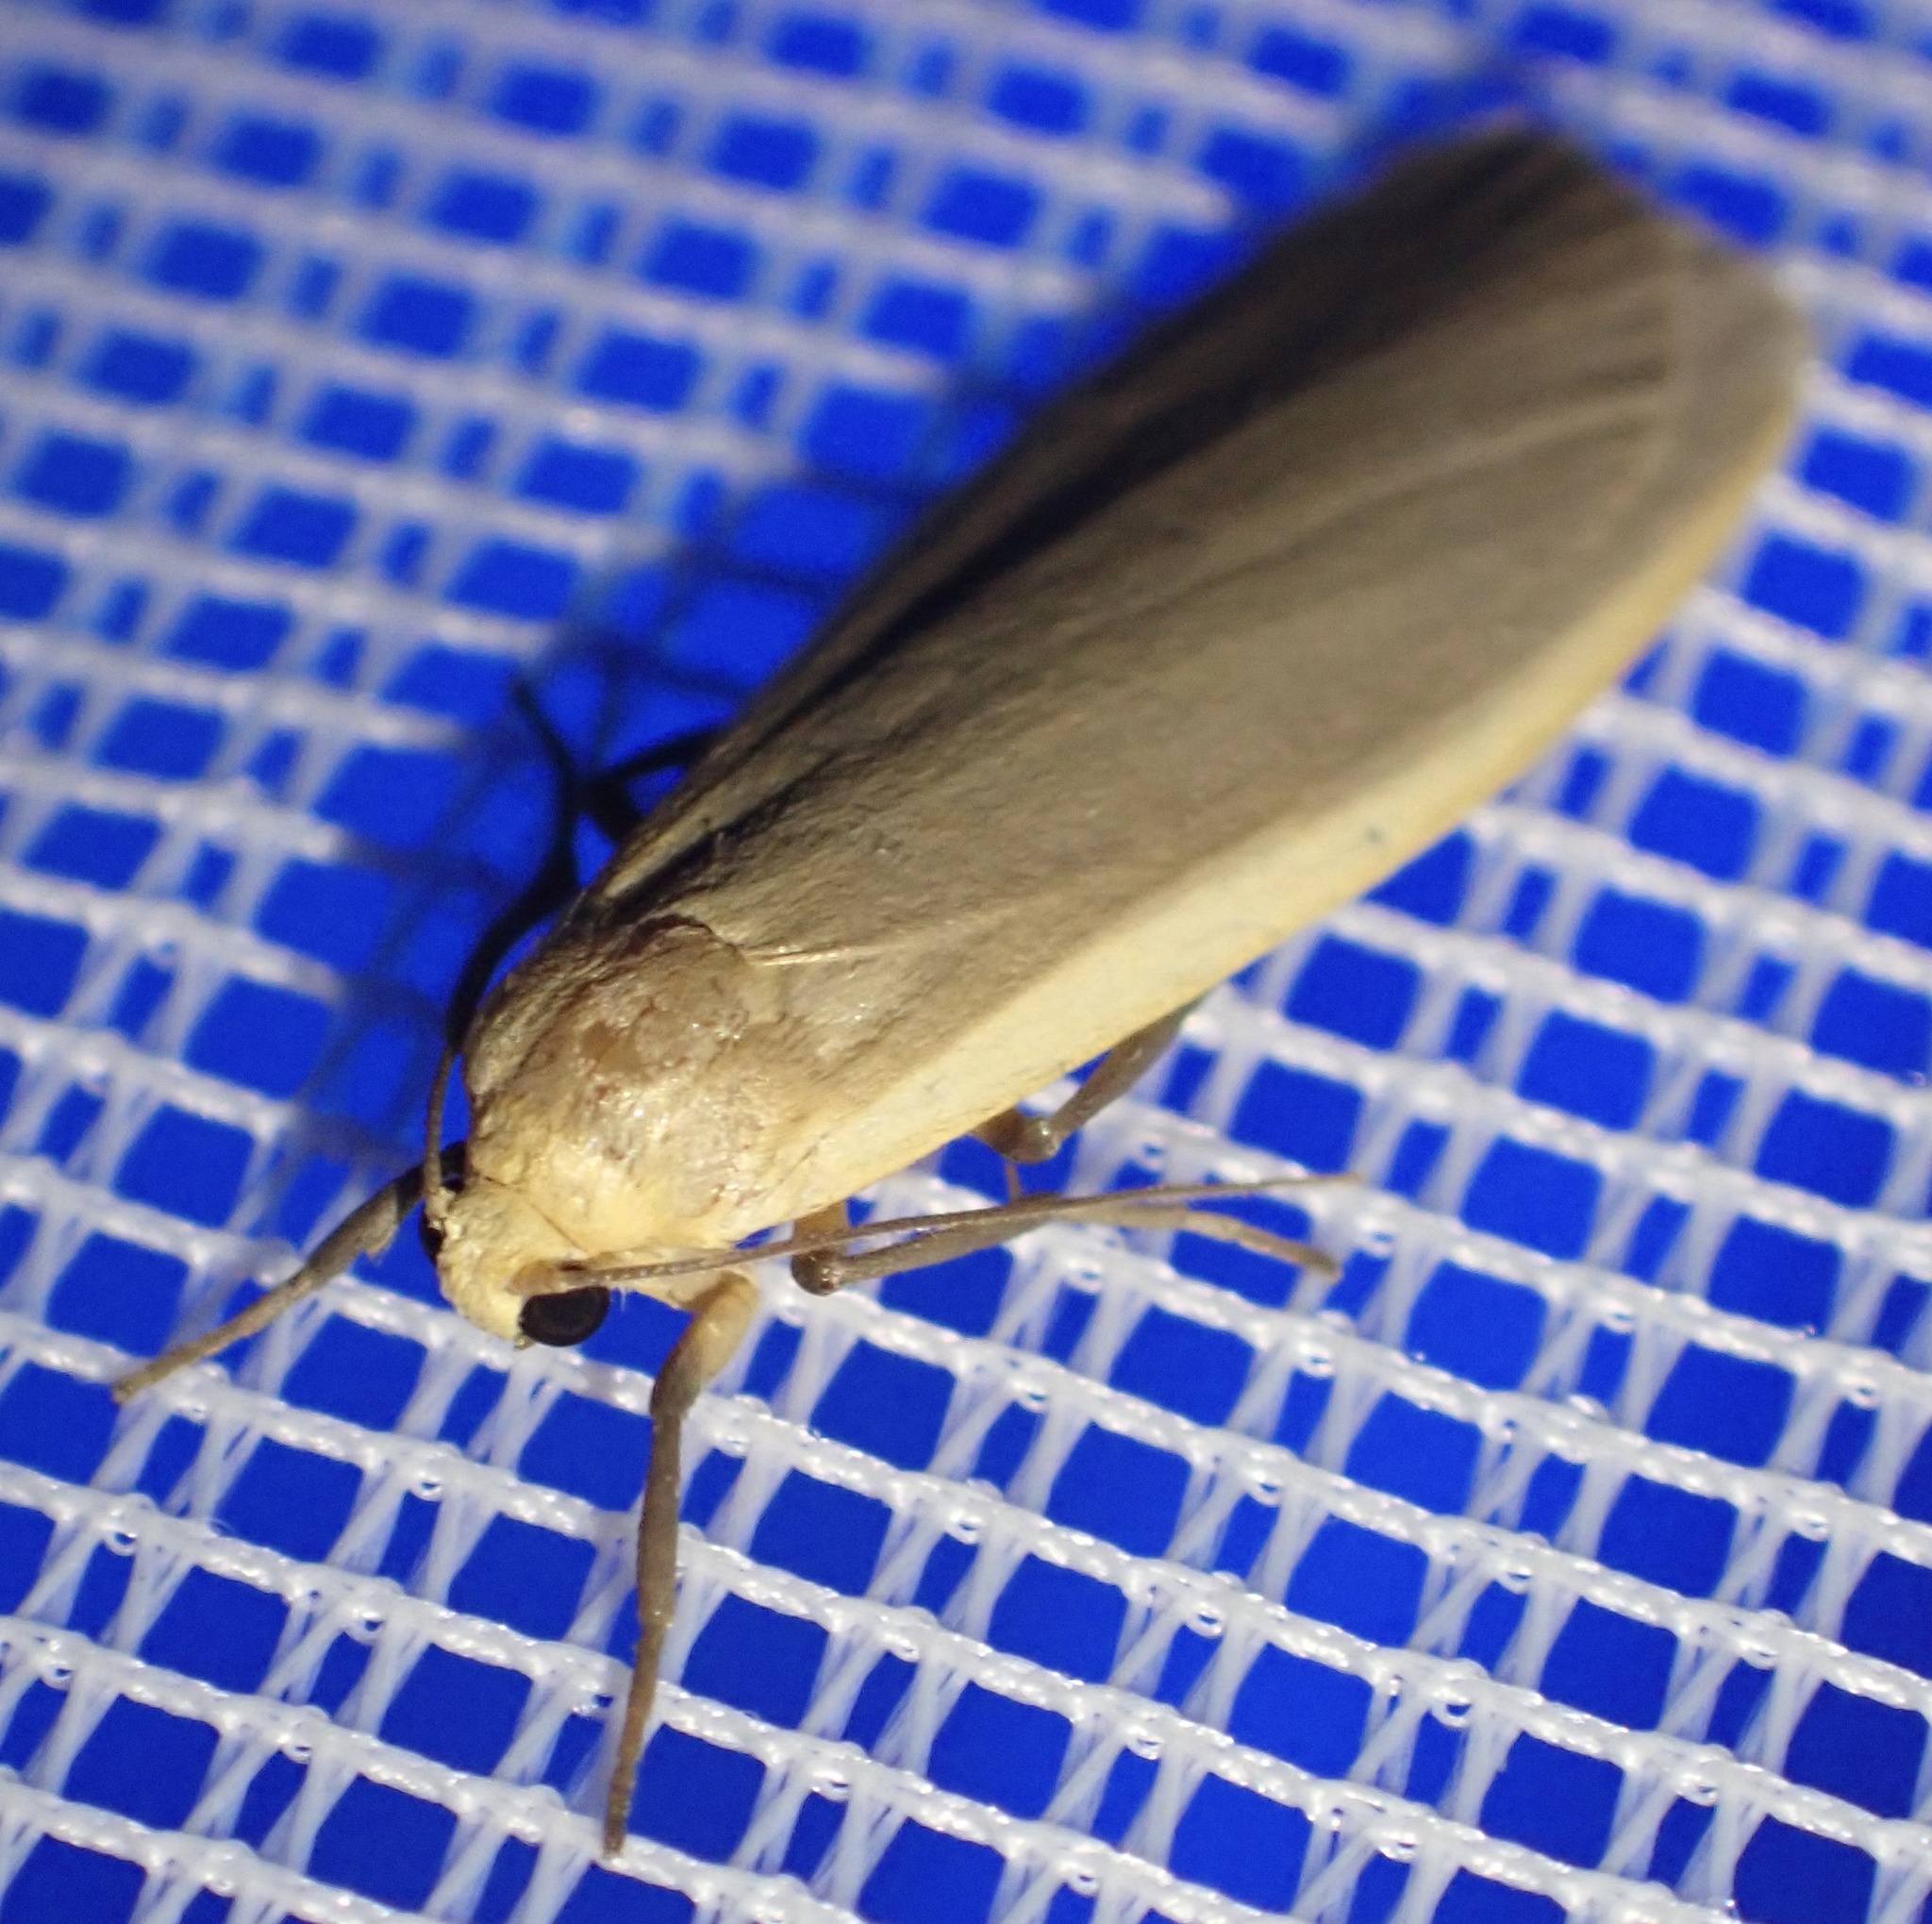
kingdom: Animalia
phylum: Arthropoda
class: Insecta
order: Lepidoptera
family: Erebidae
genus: Katha
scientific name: Katha depressa
